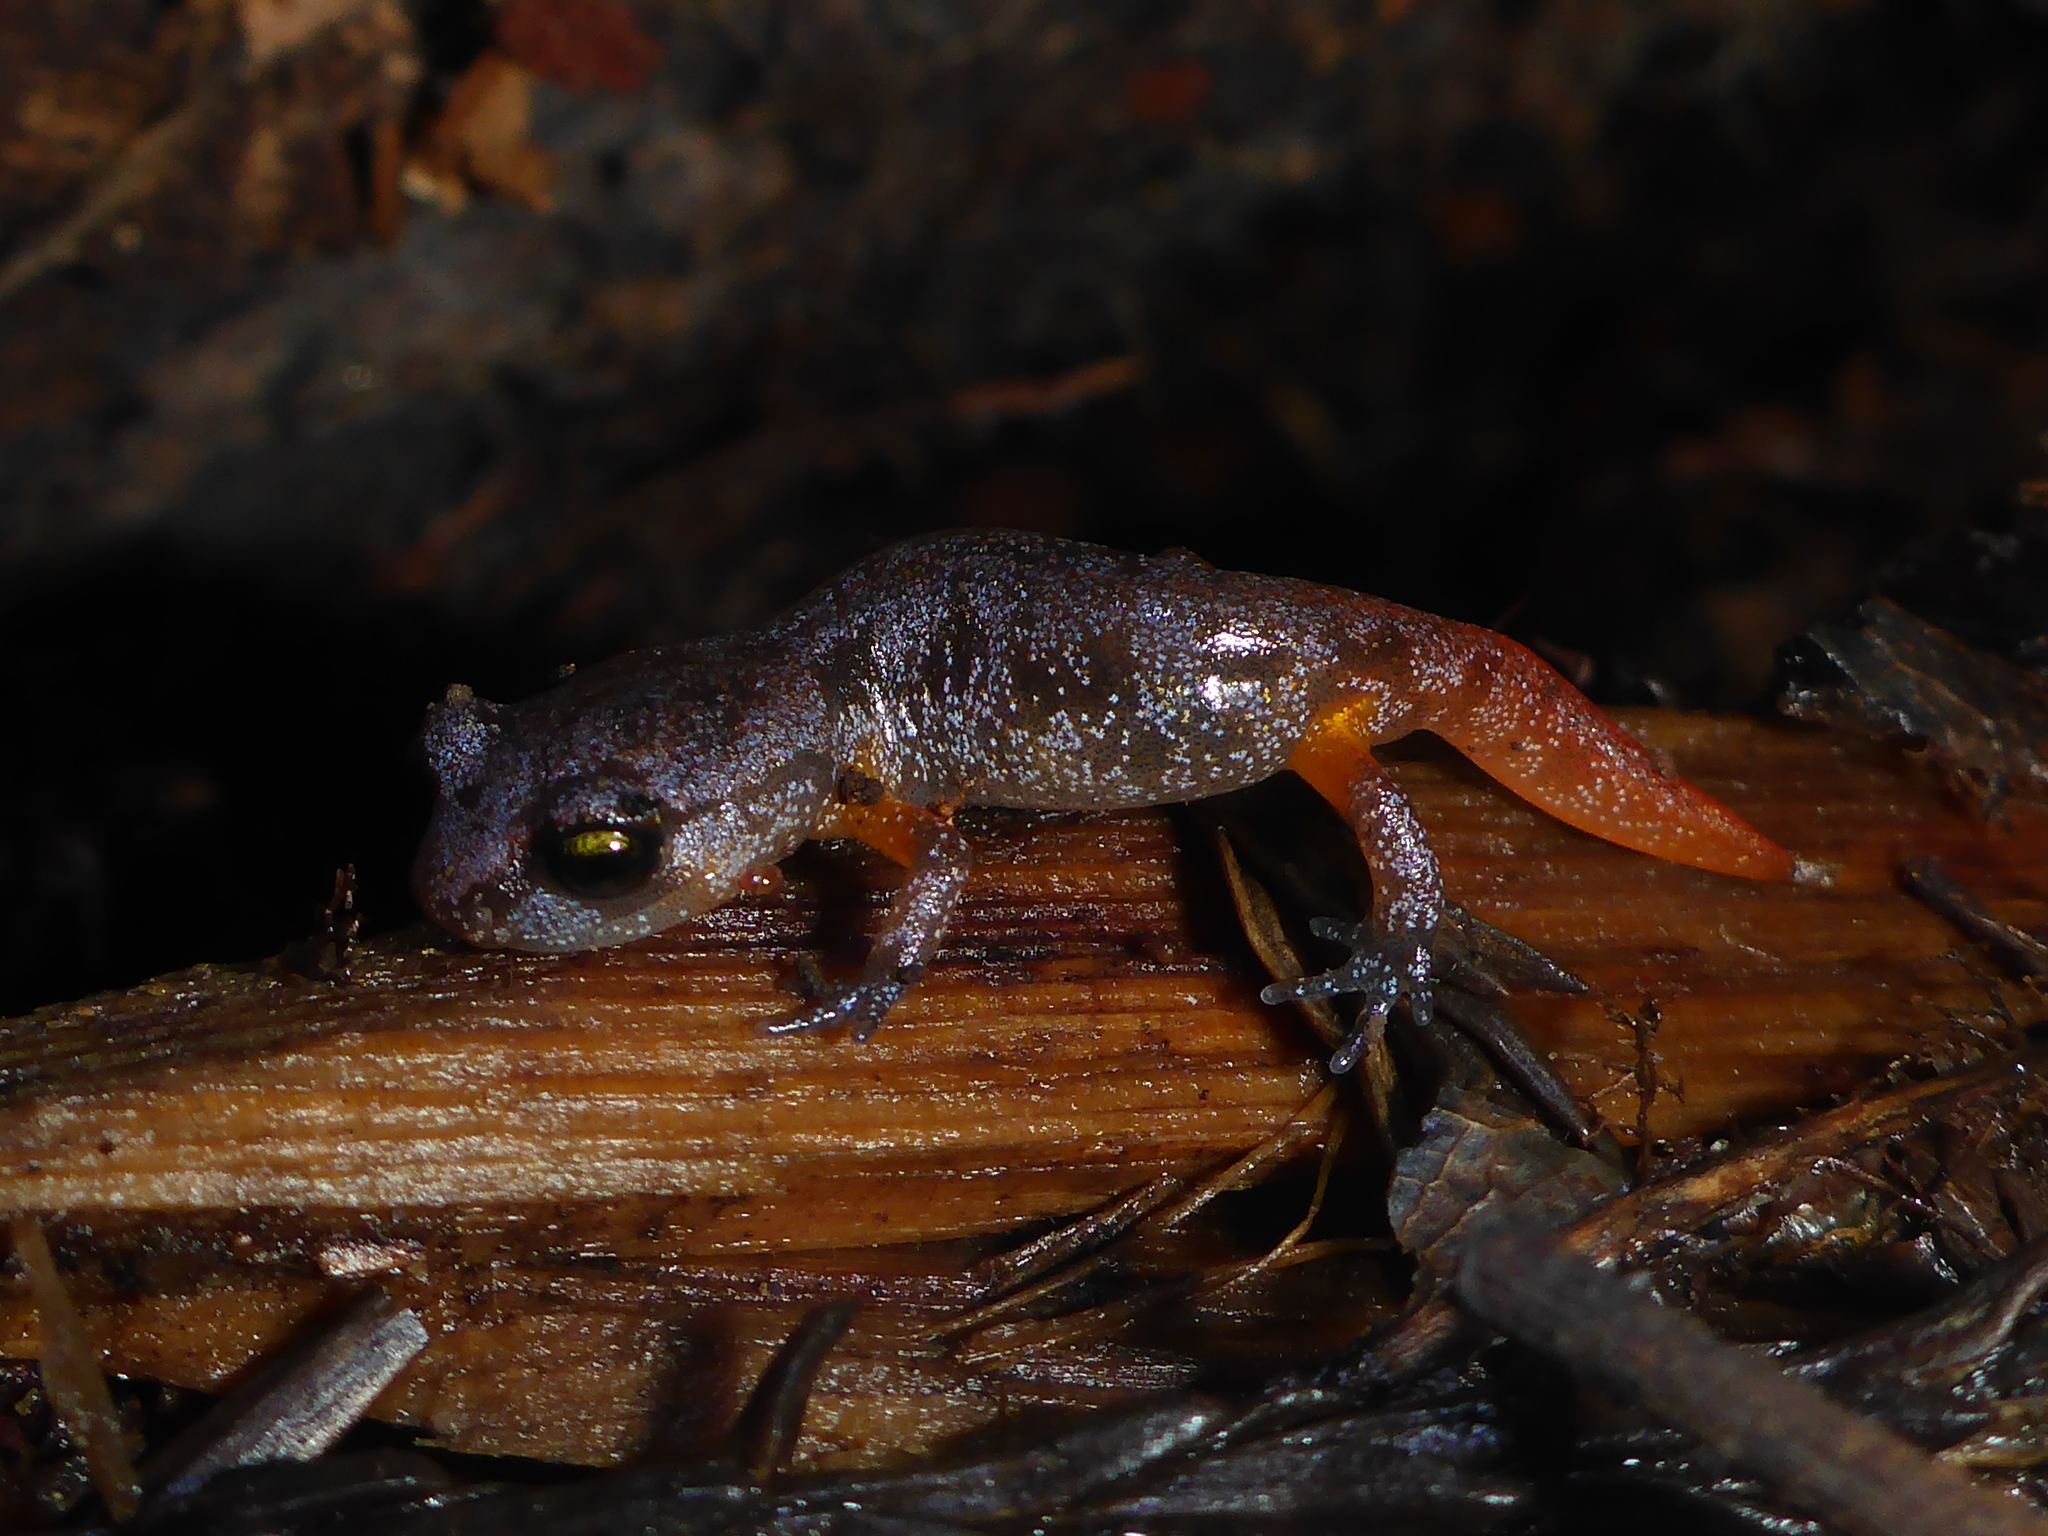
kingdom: Animalia
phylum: Chordata
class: Amphibia
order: Caudata
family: Plethodontidae
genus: Ensatina
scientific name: Ensatina eschscholtzii
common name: Ensatina
